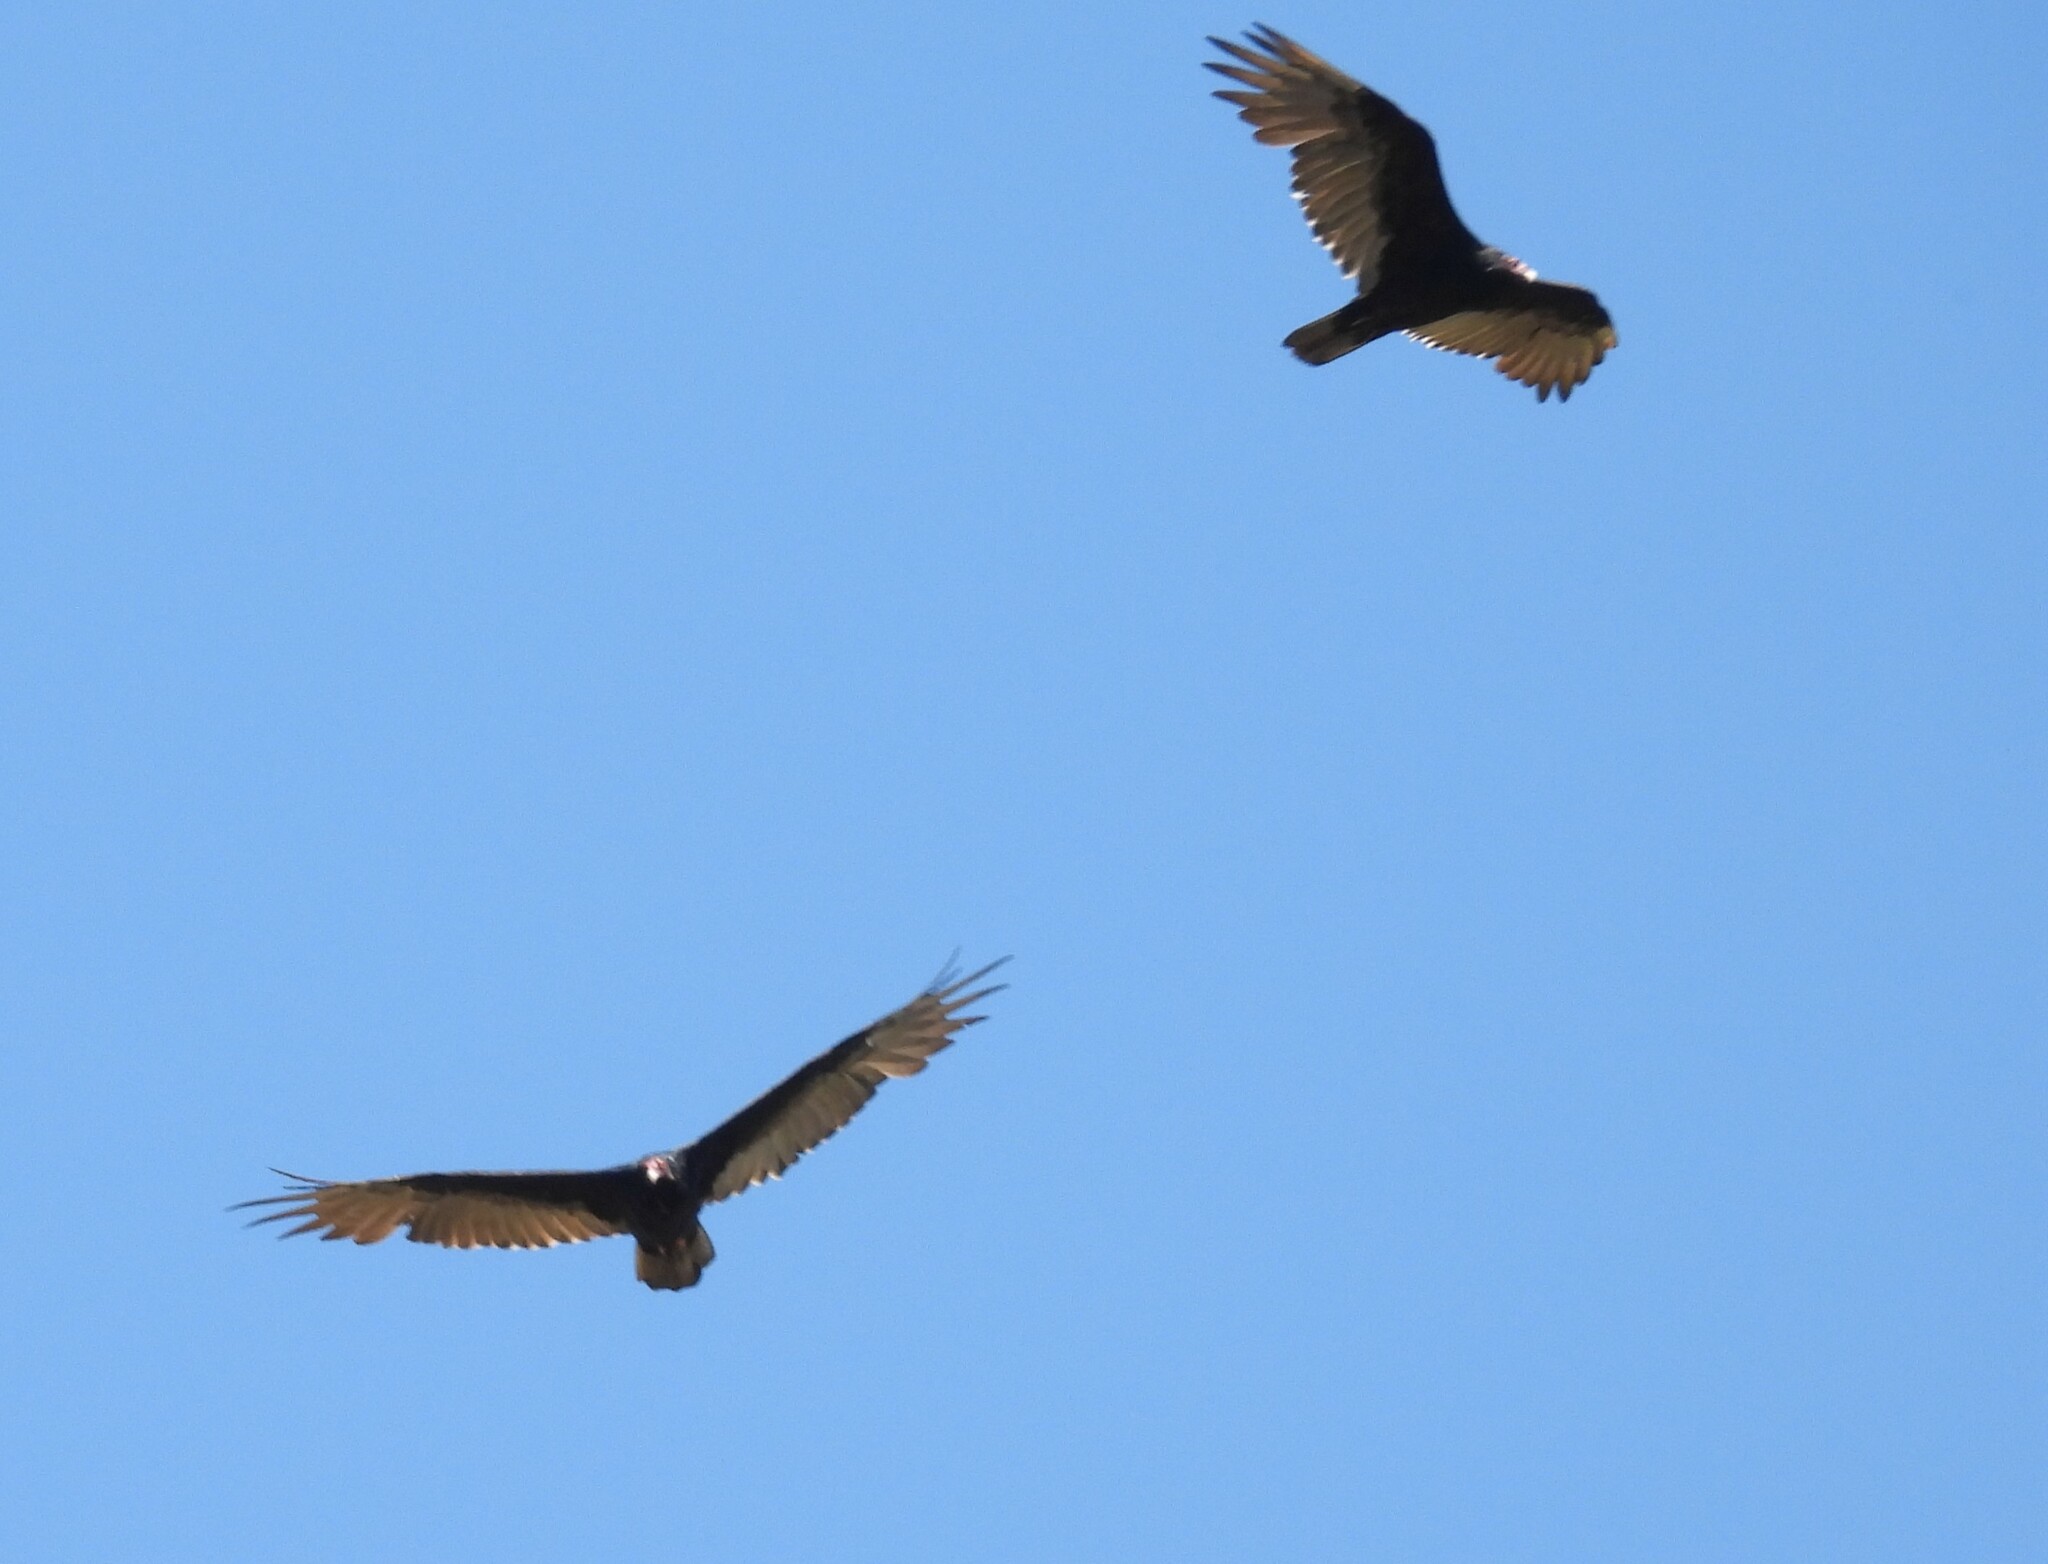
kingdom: Animalia
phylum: Chordata
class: Aves
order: Accipitriformes
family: Cathartidae
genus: Cathartes
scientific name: Cathartes aura
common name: Turkey vulture
